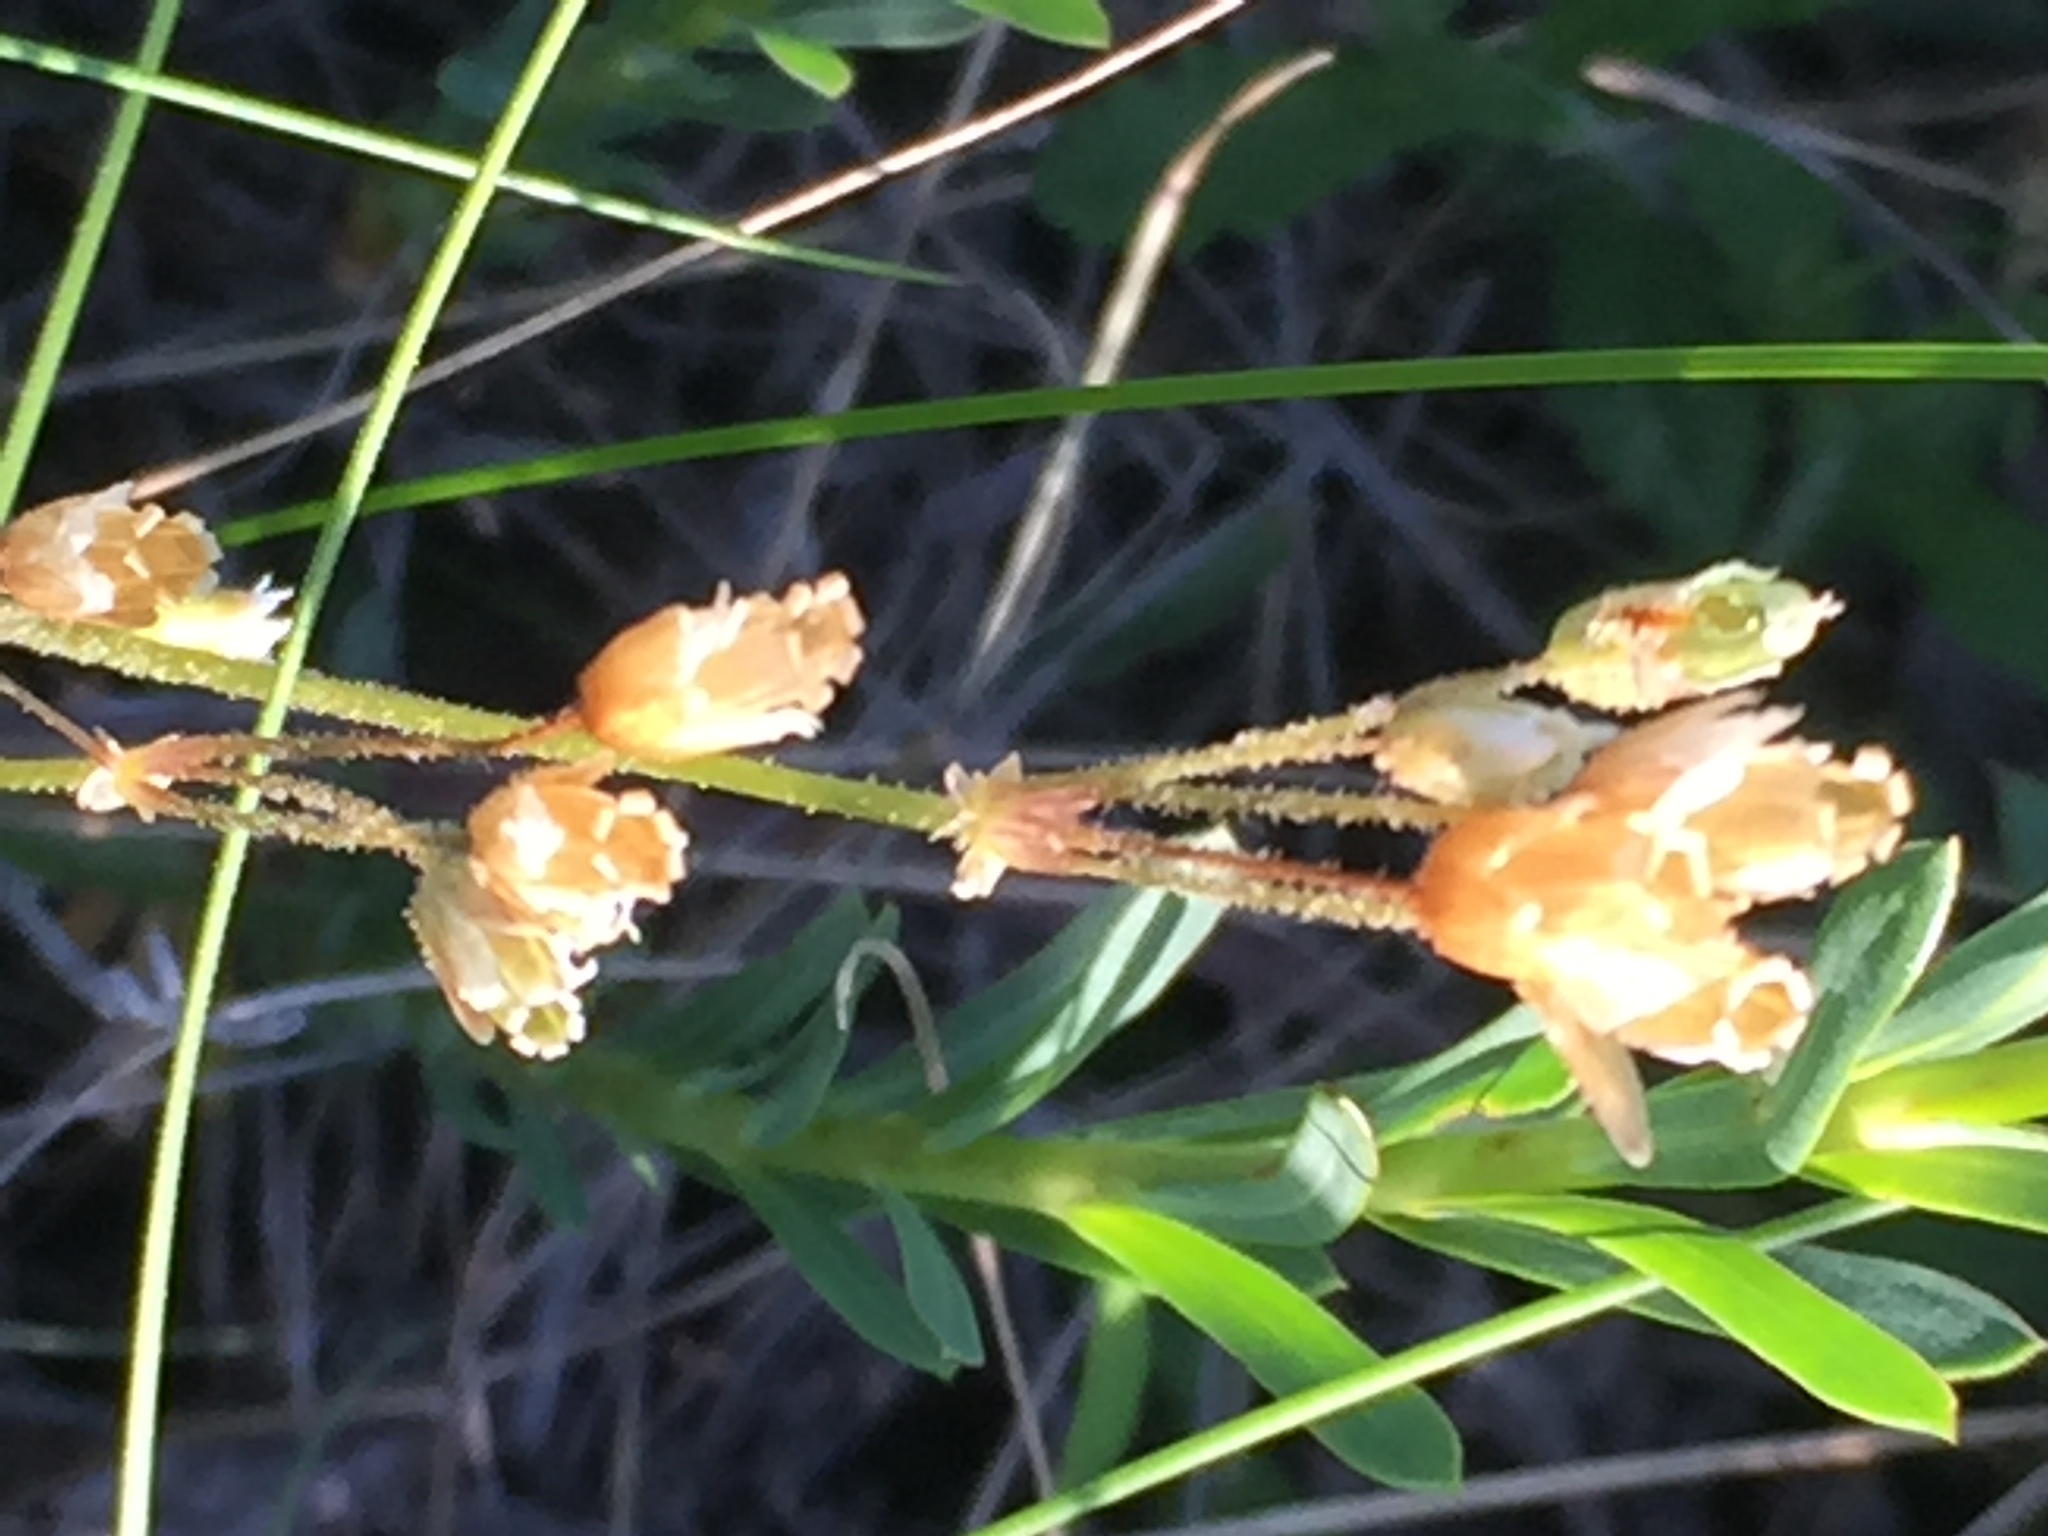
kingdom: Plantae
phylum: Tracheophyta
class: Magnoliopsida
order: Caryophyllales
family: Caryophyllaceae
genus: Holosteum
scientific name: Holosteum umbellatum
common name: Jagged chickweed
